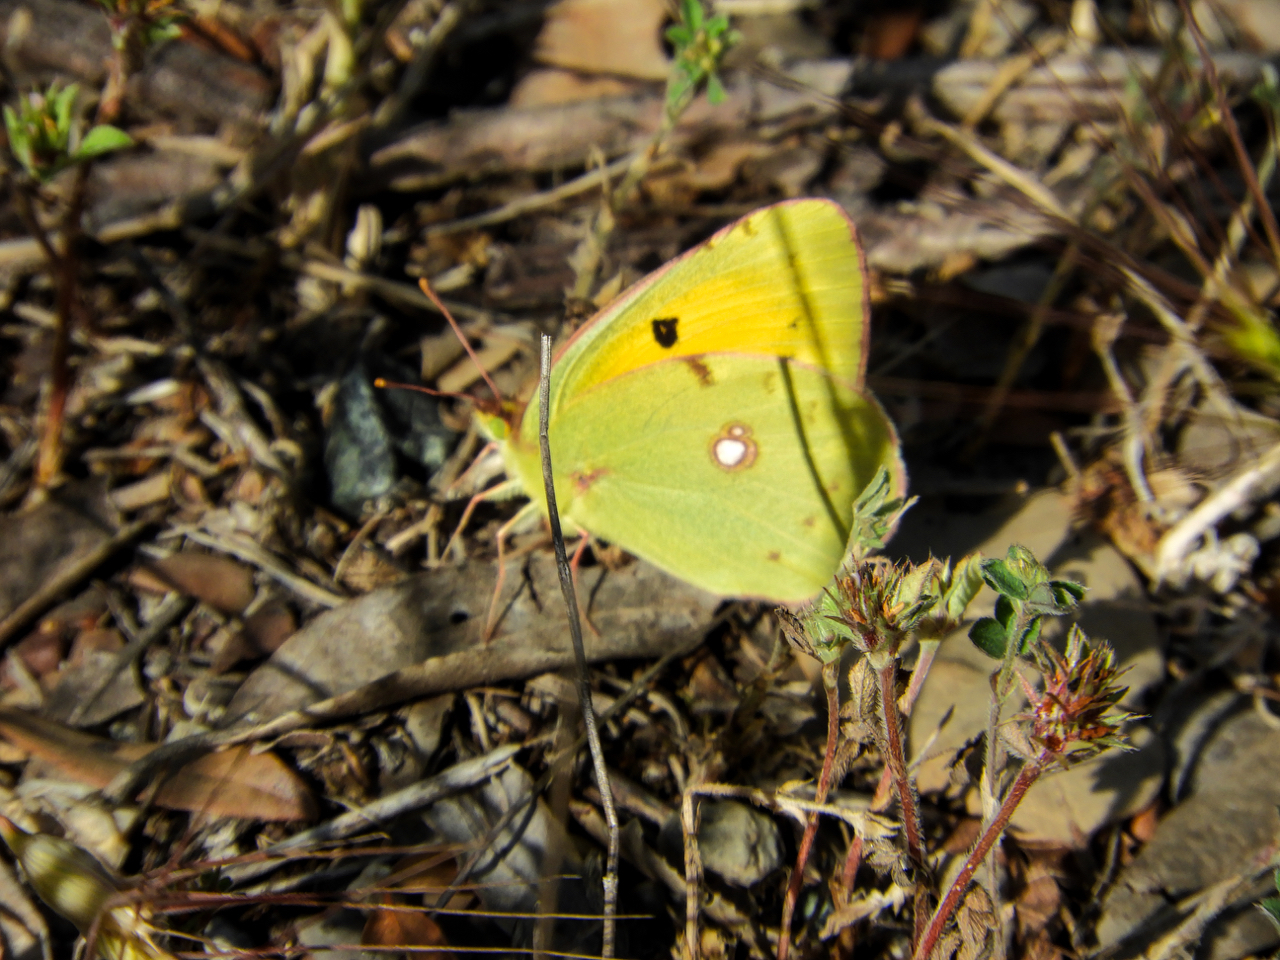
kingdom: Animalia
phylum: Arthropoda
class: Insecta
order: Lepidoptera
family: Pieridae
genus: Colias
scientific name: Colias croceus
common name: Clouded yellow
